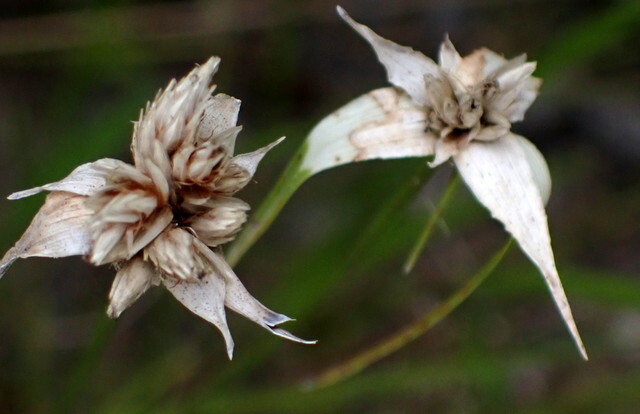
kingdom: Plantae
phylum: Tracheophyta
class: Liliopsida
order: Poales
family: Cyperaceae
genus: Rhynchospora
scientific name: Rhynchospora colorata
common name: Star sedge
